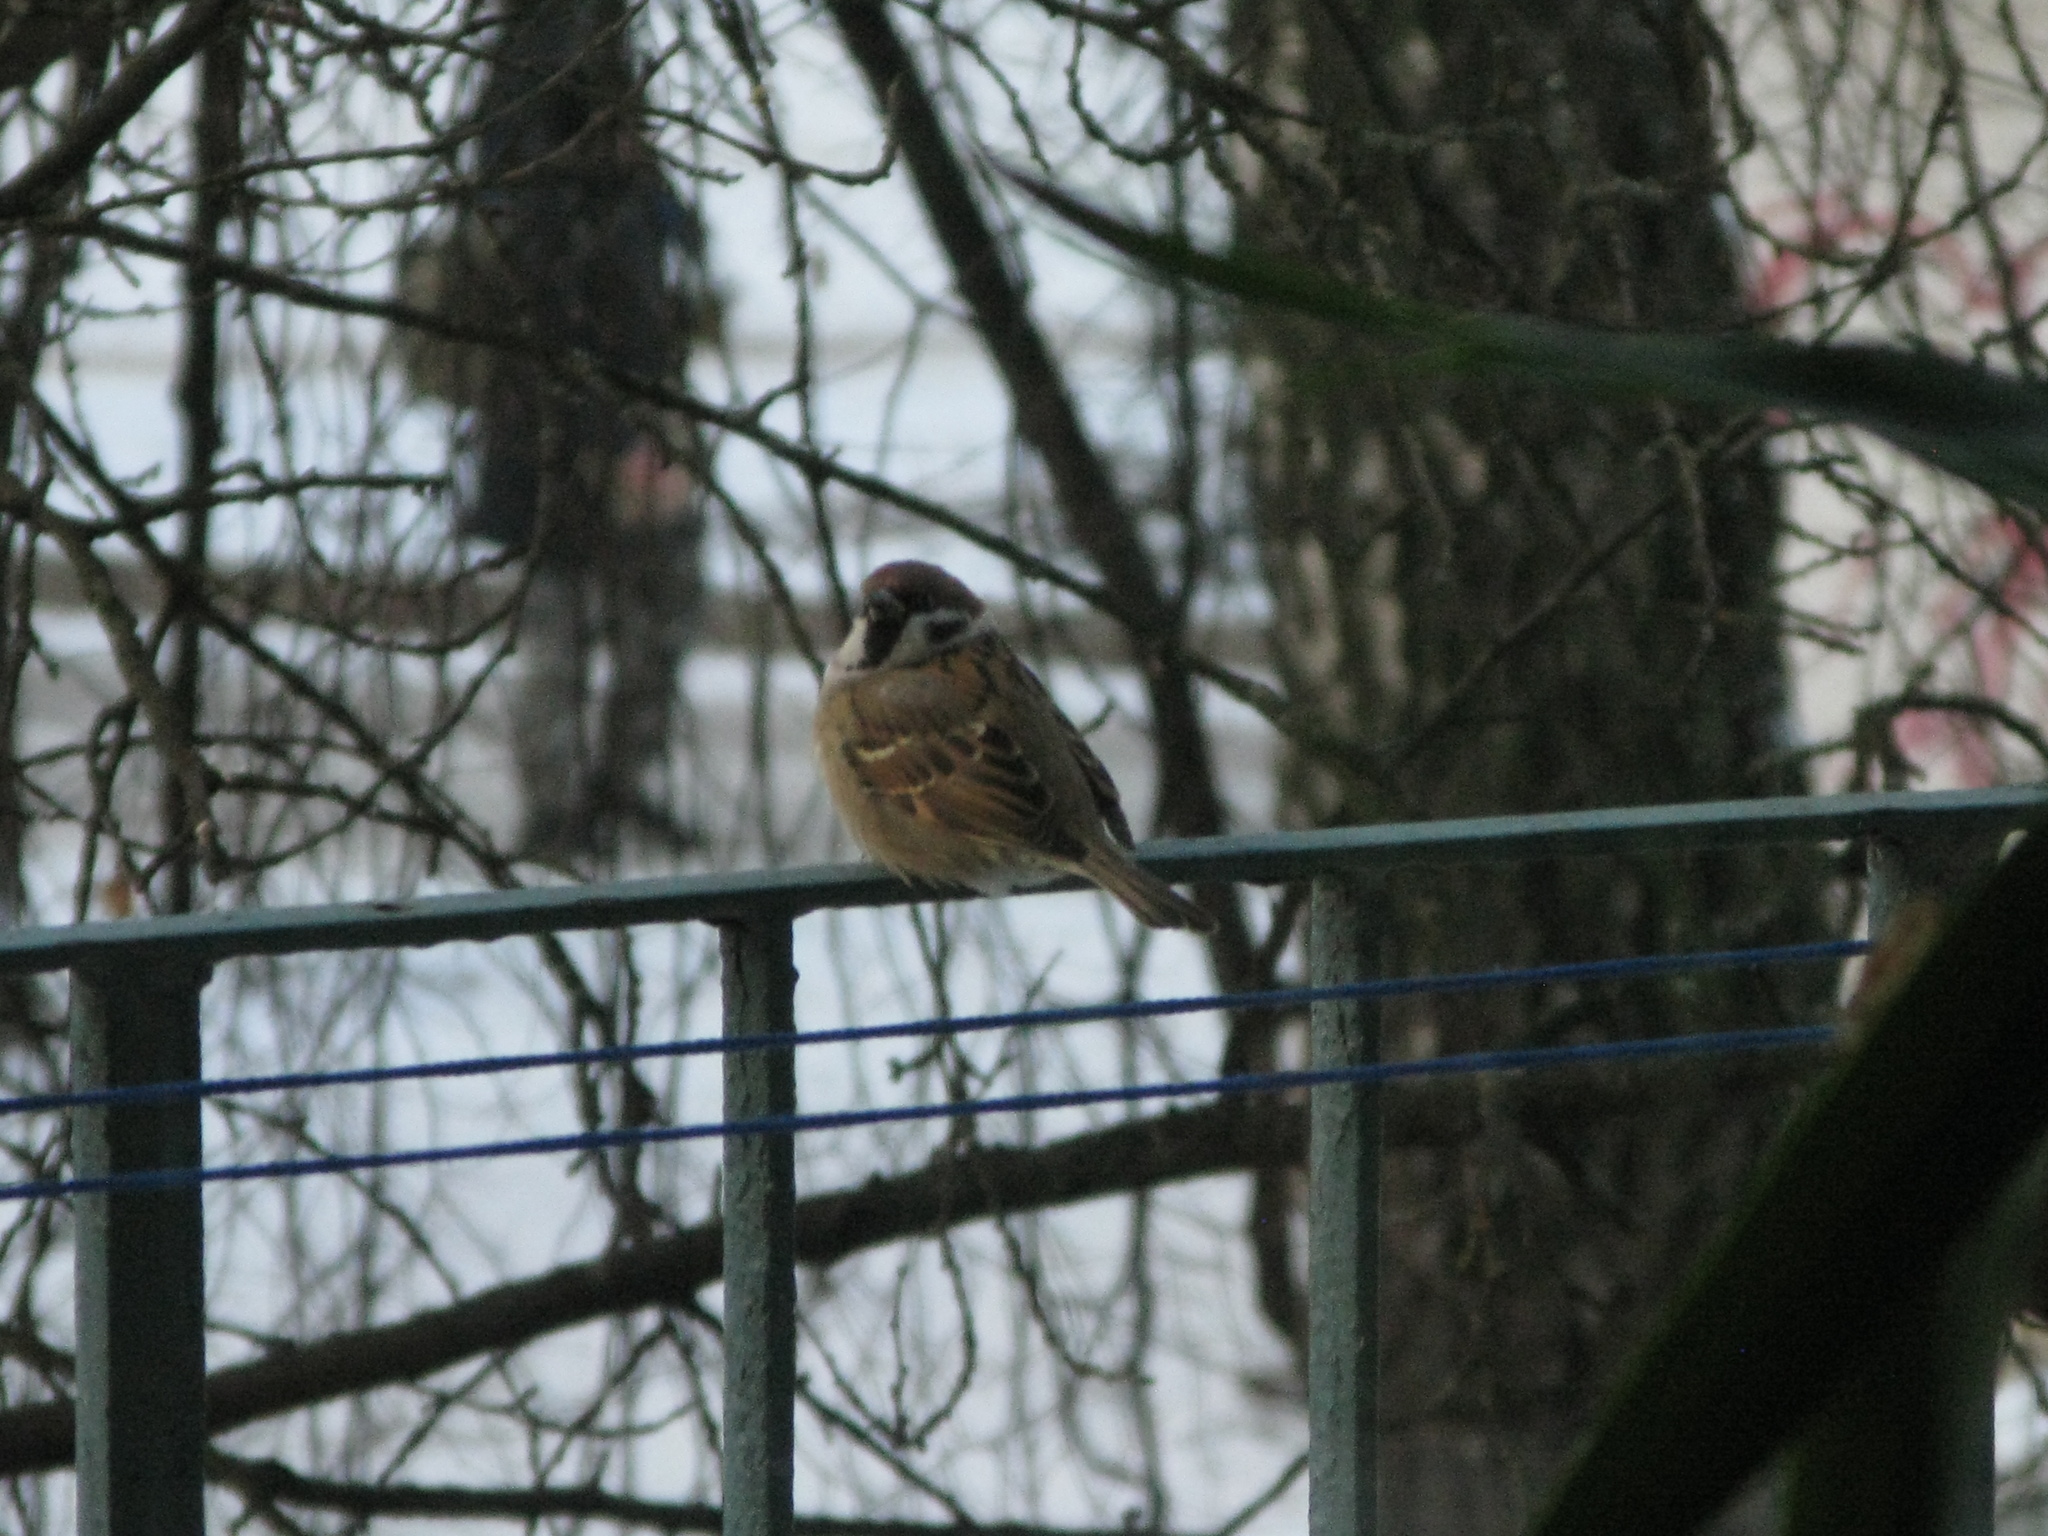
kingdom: Animalia
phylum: Chordata
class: Aves
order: Passeriformes
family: Passeridae
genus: Passer
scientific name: Passer montanus
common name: Eurasian tree sparrow
